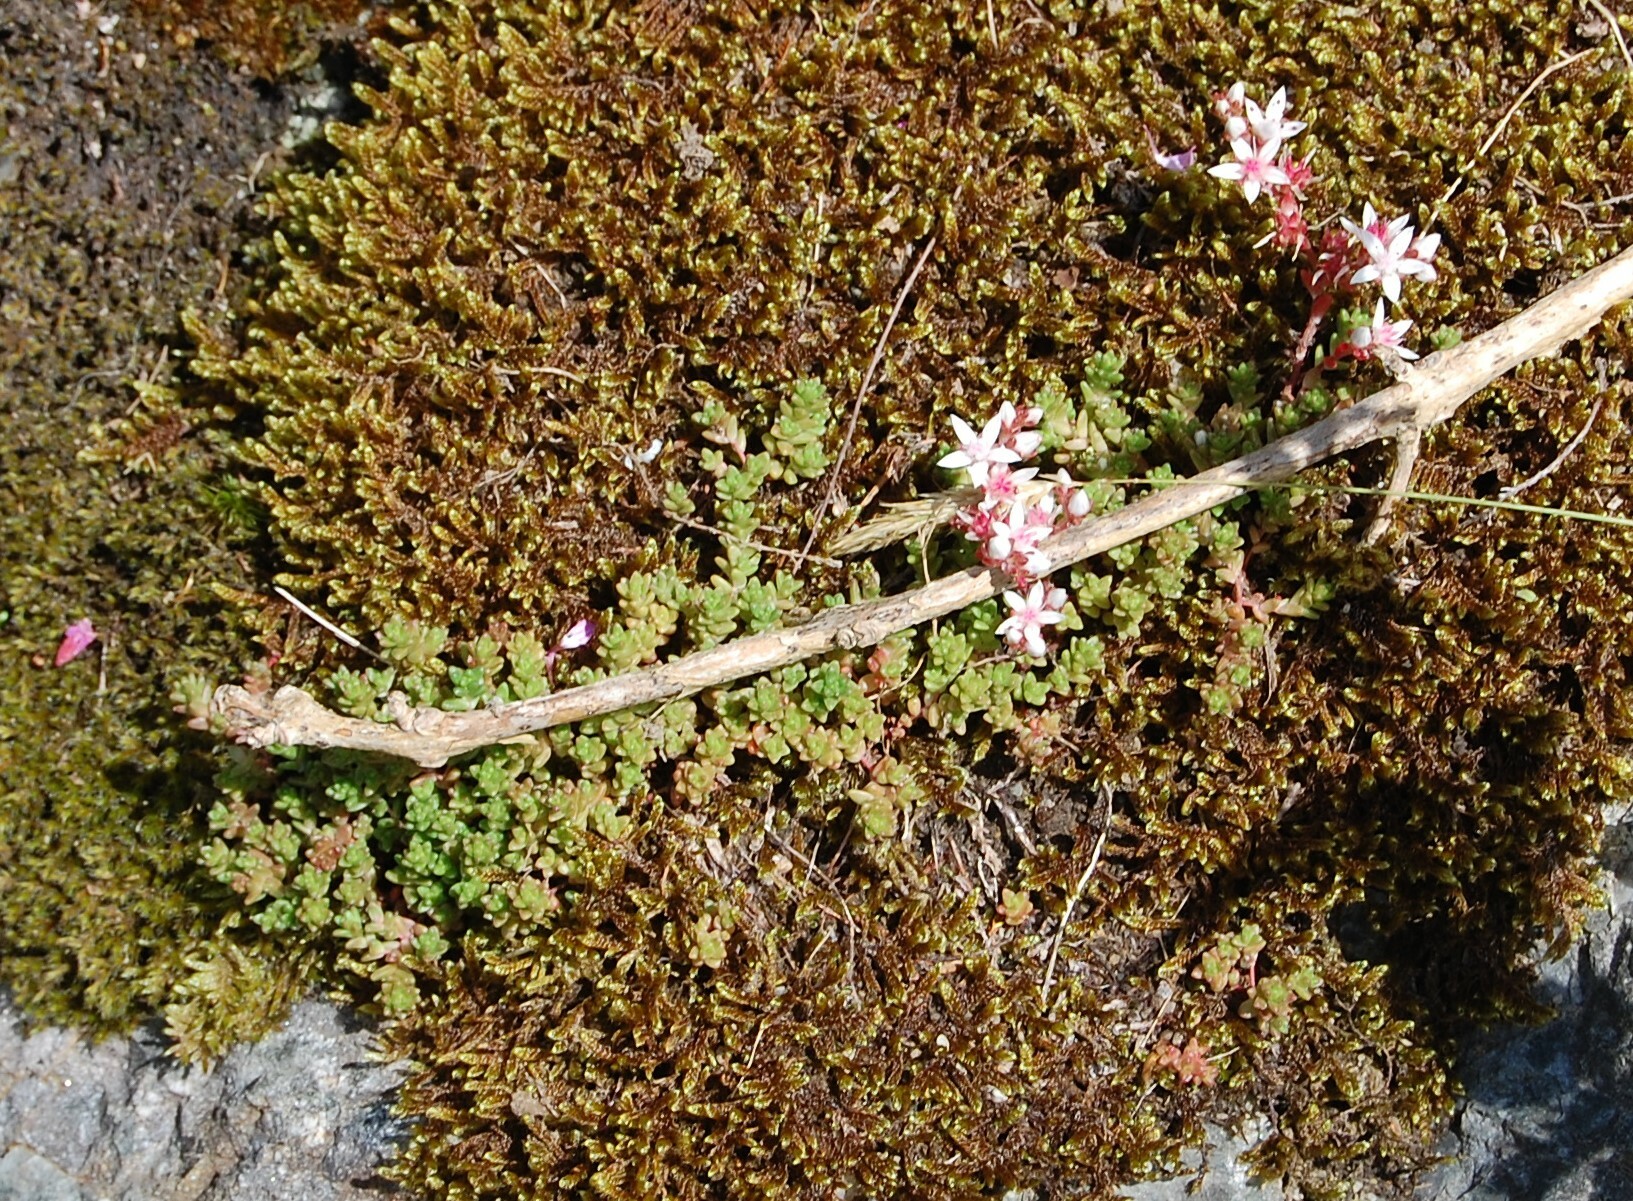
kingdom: Plantae
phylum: Tracheophyta
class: Magnoliopsida
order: Saxifragales
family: Crassulaceae
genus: Sedum
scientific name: Sedum anglicum
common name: English stonecrop
